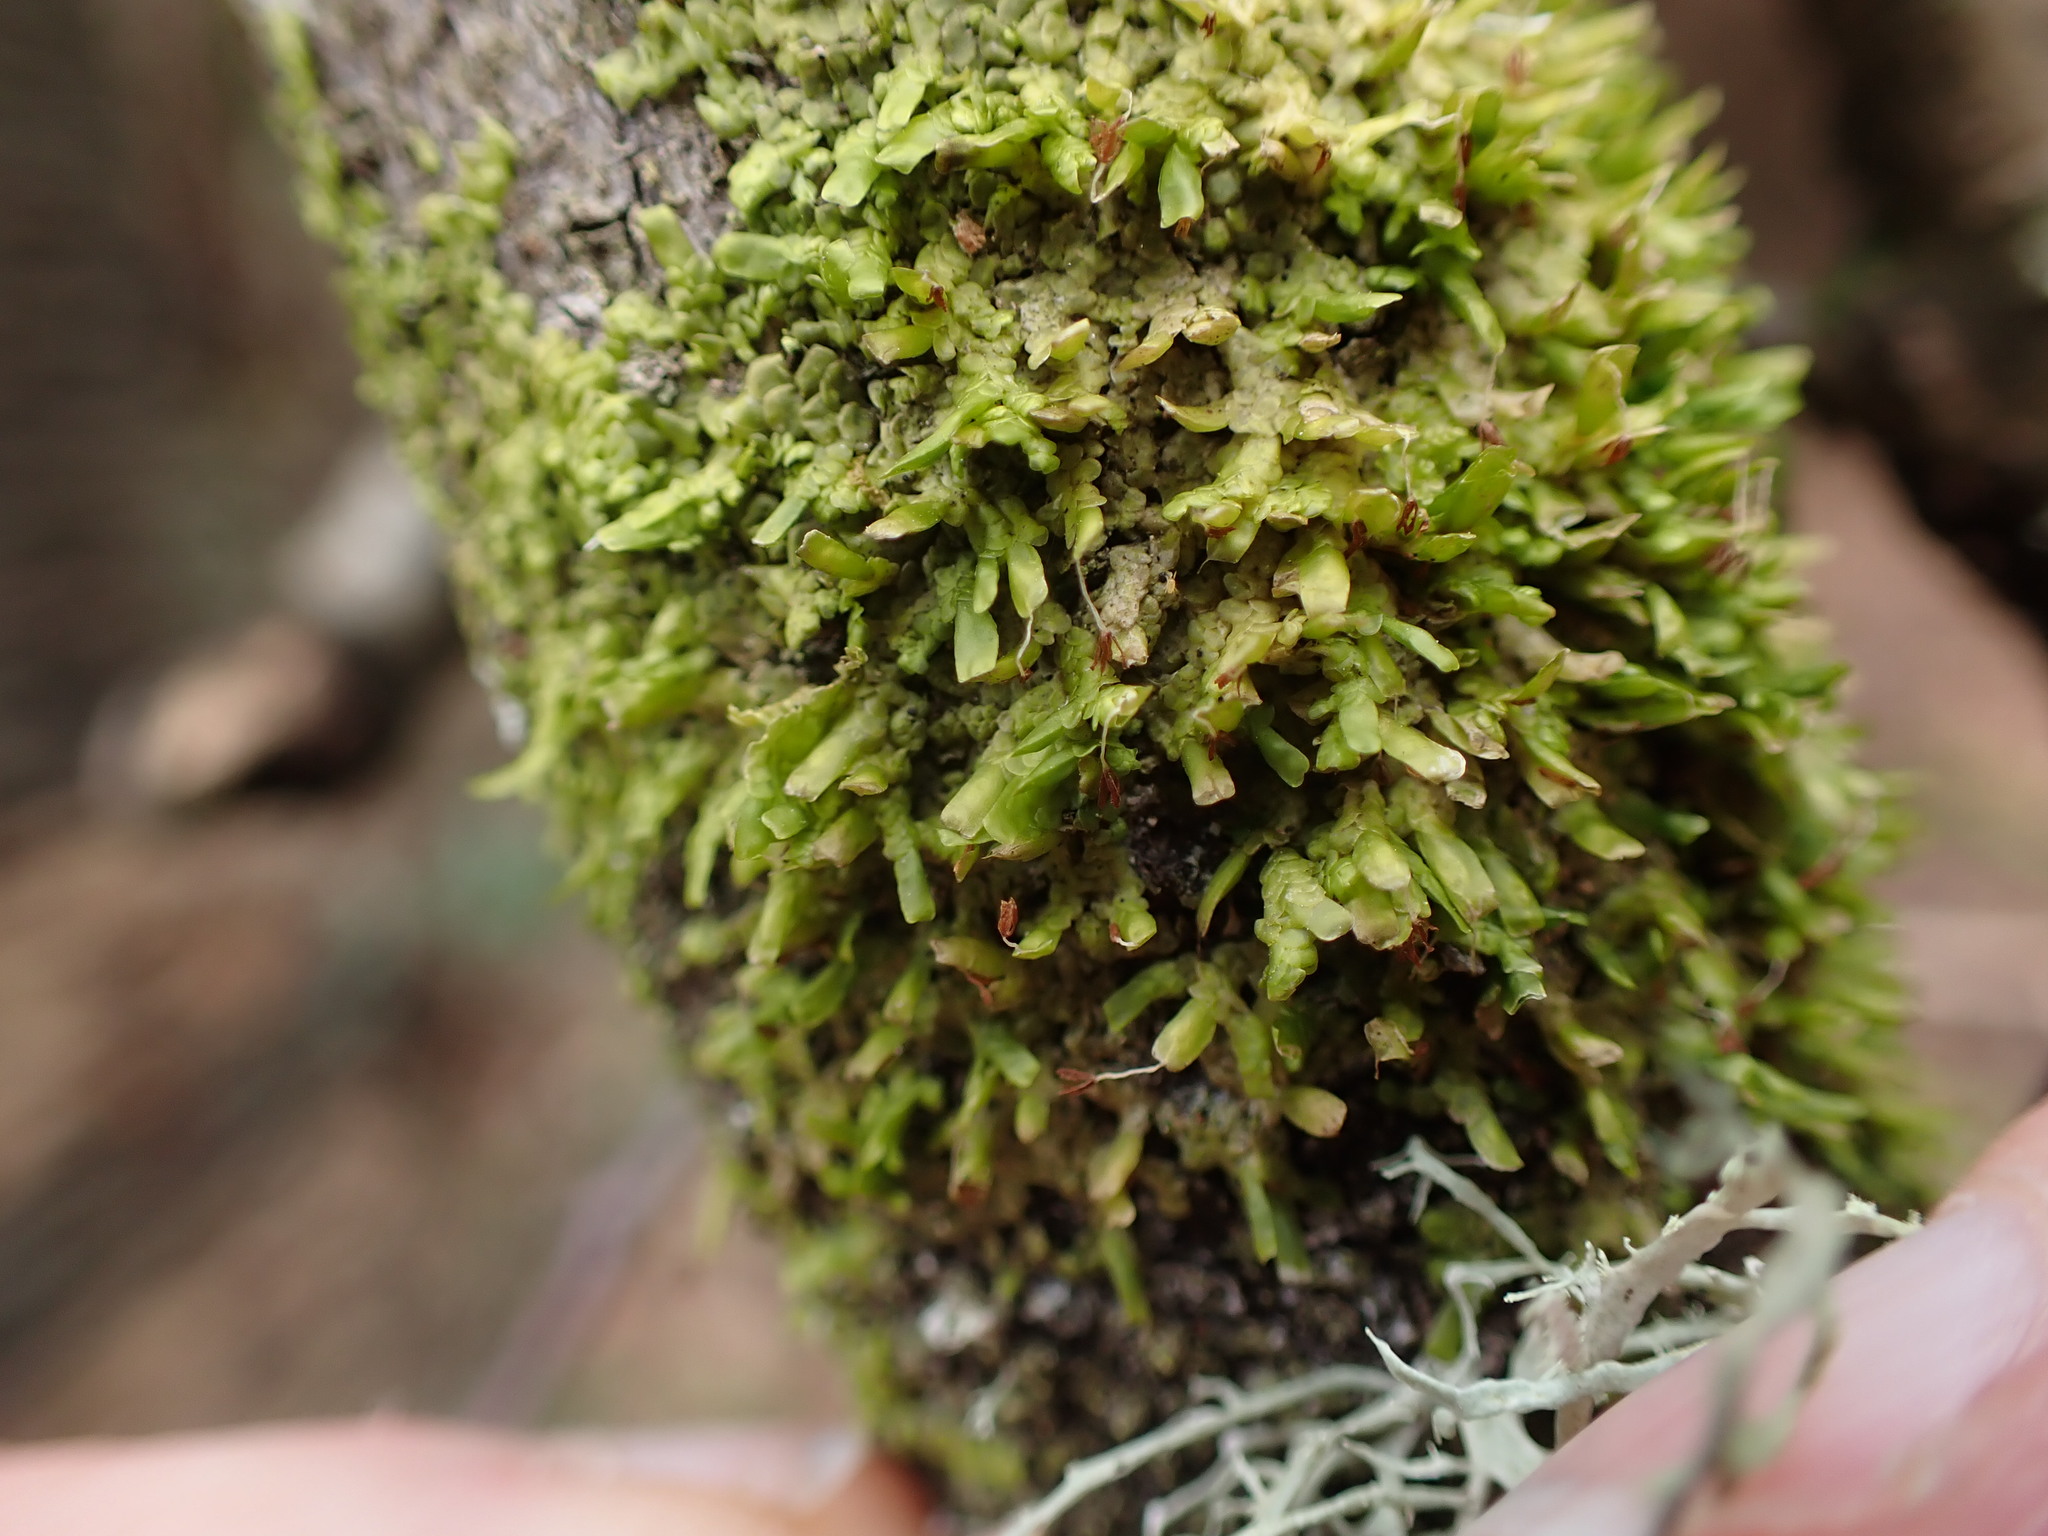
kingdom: Plantae
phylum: Marchantiophyta
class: Jungermanniopsida
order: Porellales
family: Radulaceae
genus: Radula
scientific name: Radula complanata
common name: Flat-leaved scalewort
